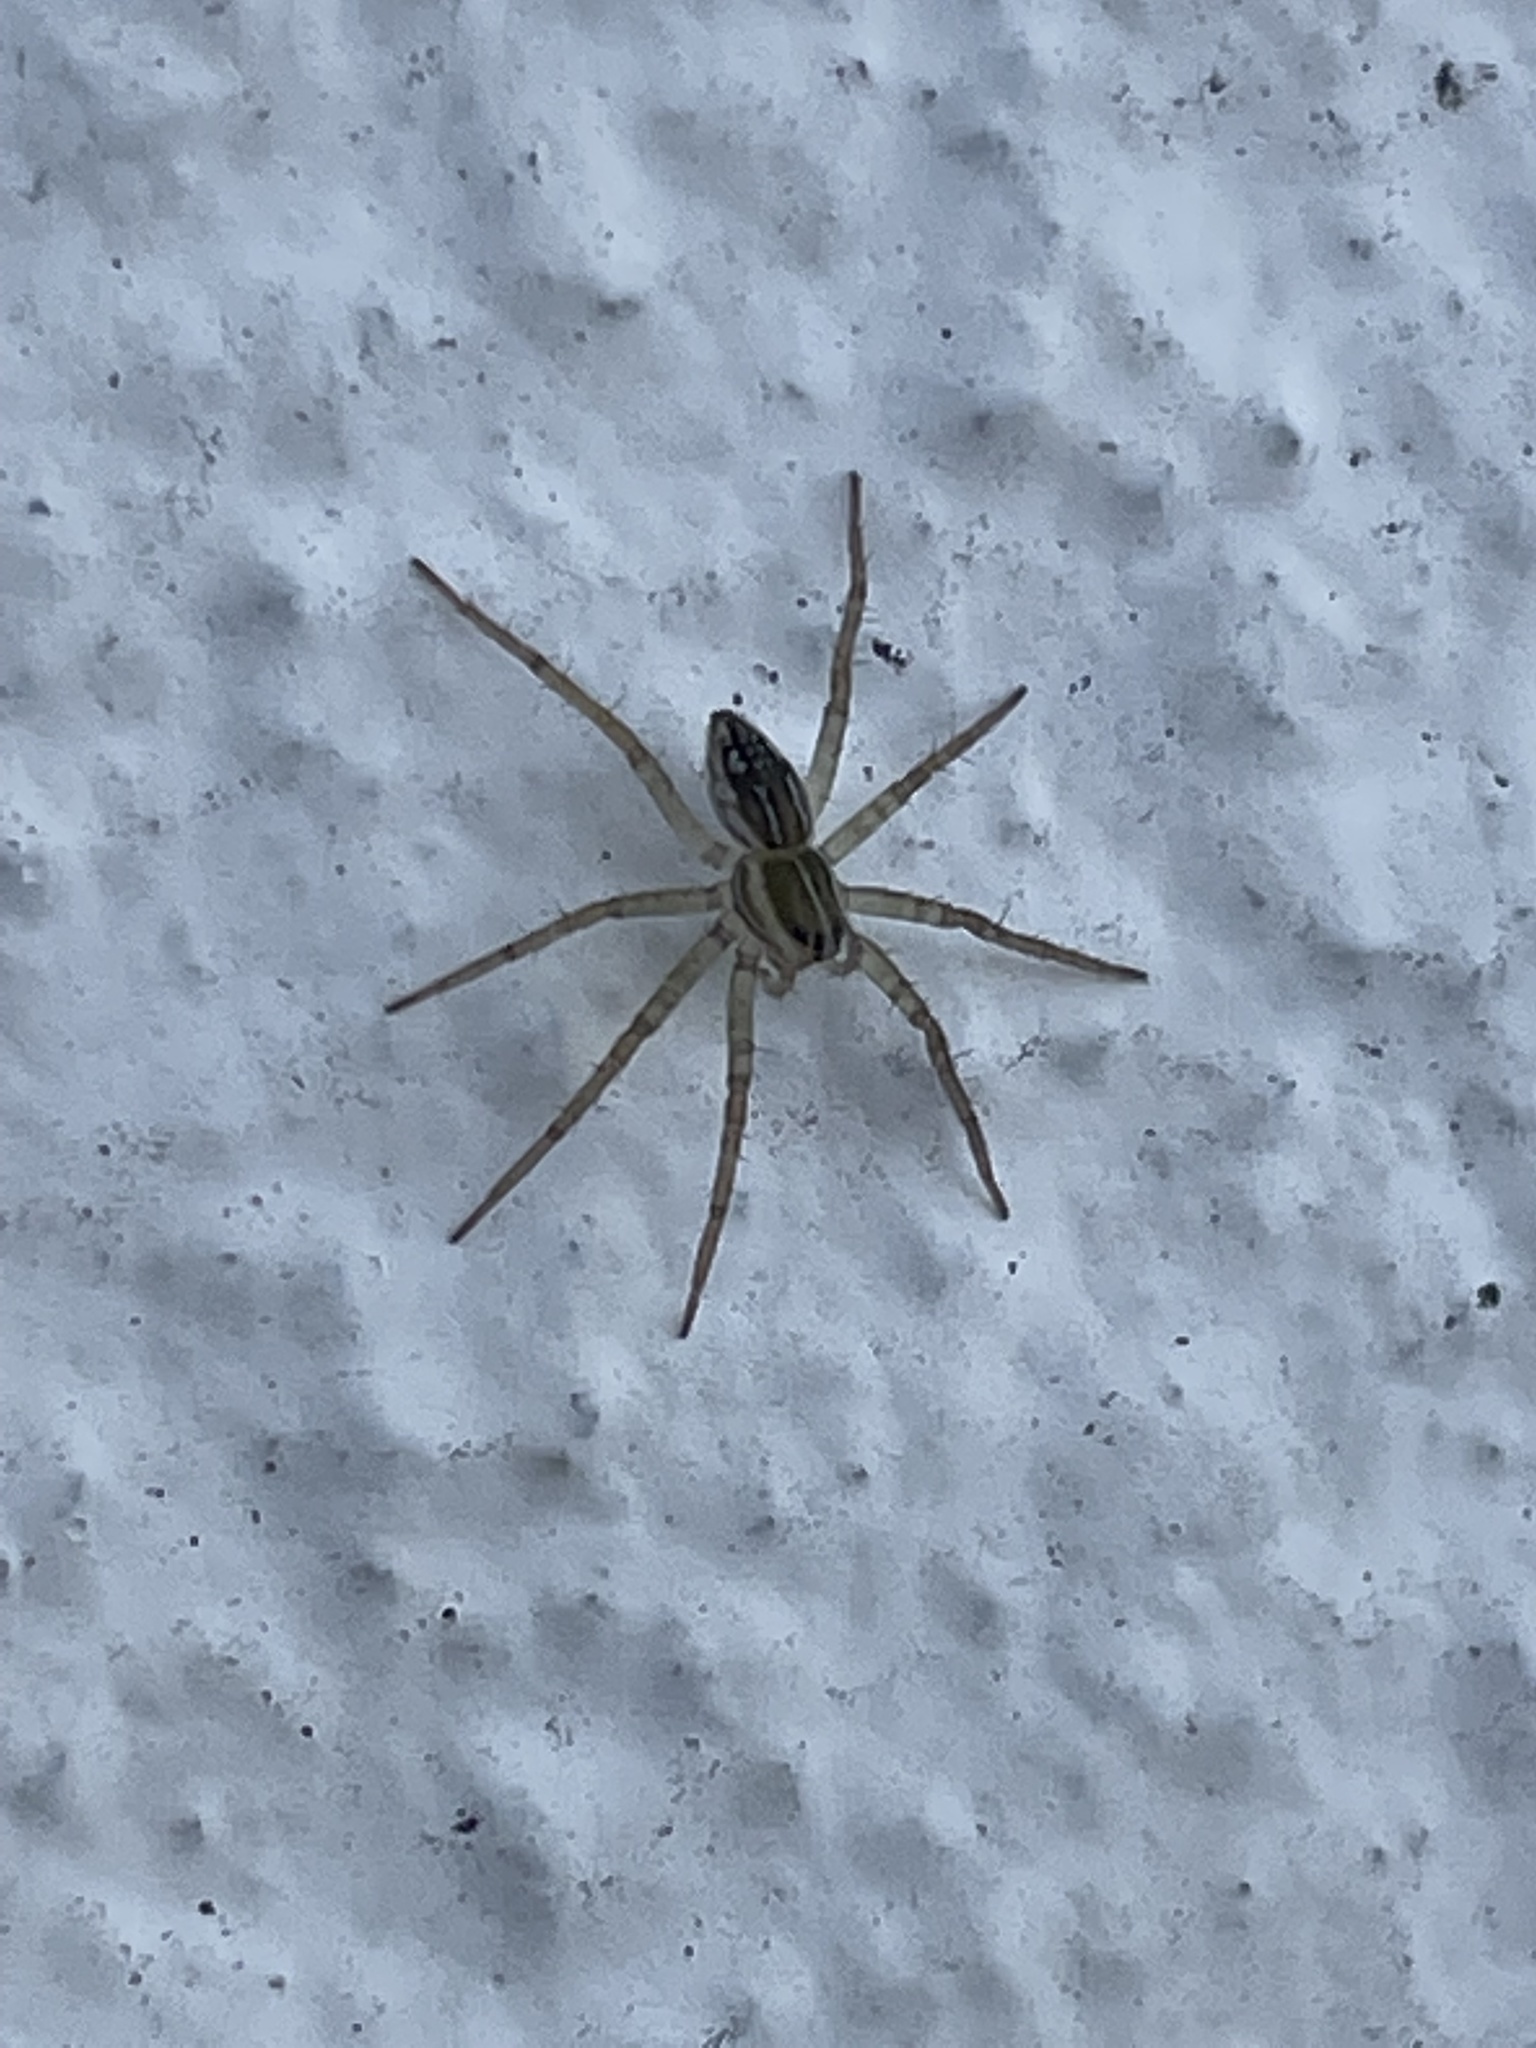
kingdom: Animalia
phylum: Arthropoda
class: Arachnida
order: Araneae
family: Pisauridae
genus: Dolomedes
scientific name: Dolomedes facetus
